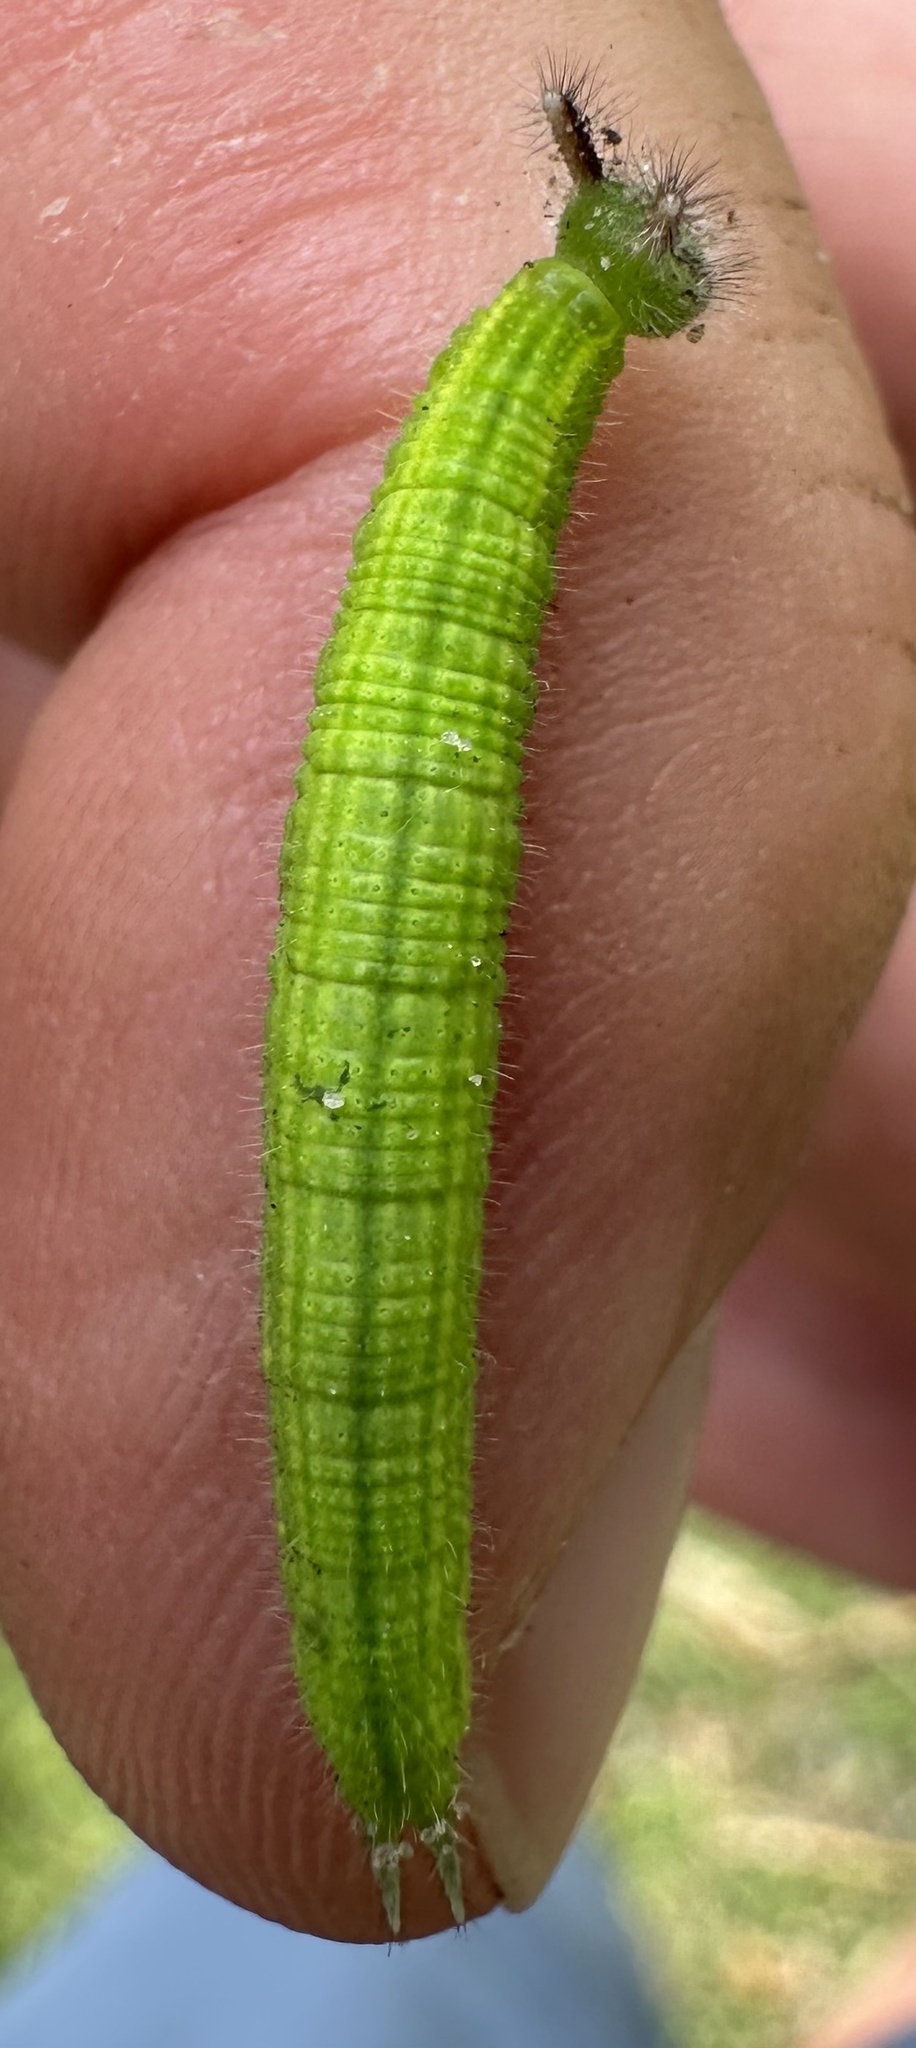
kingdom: Animalia
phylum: Arthropoda
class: Insecta
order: Lepidoptera
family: Nymphalidae
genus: Melanitis
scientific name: Melanitis leda
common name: Twilight brown
